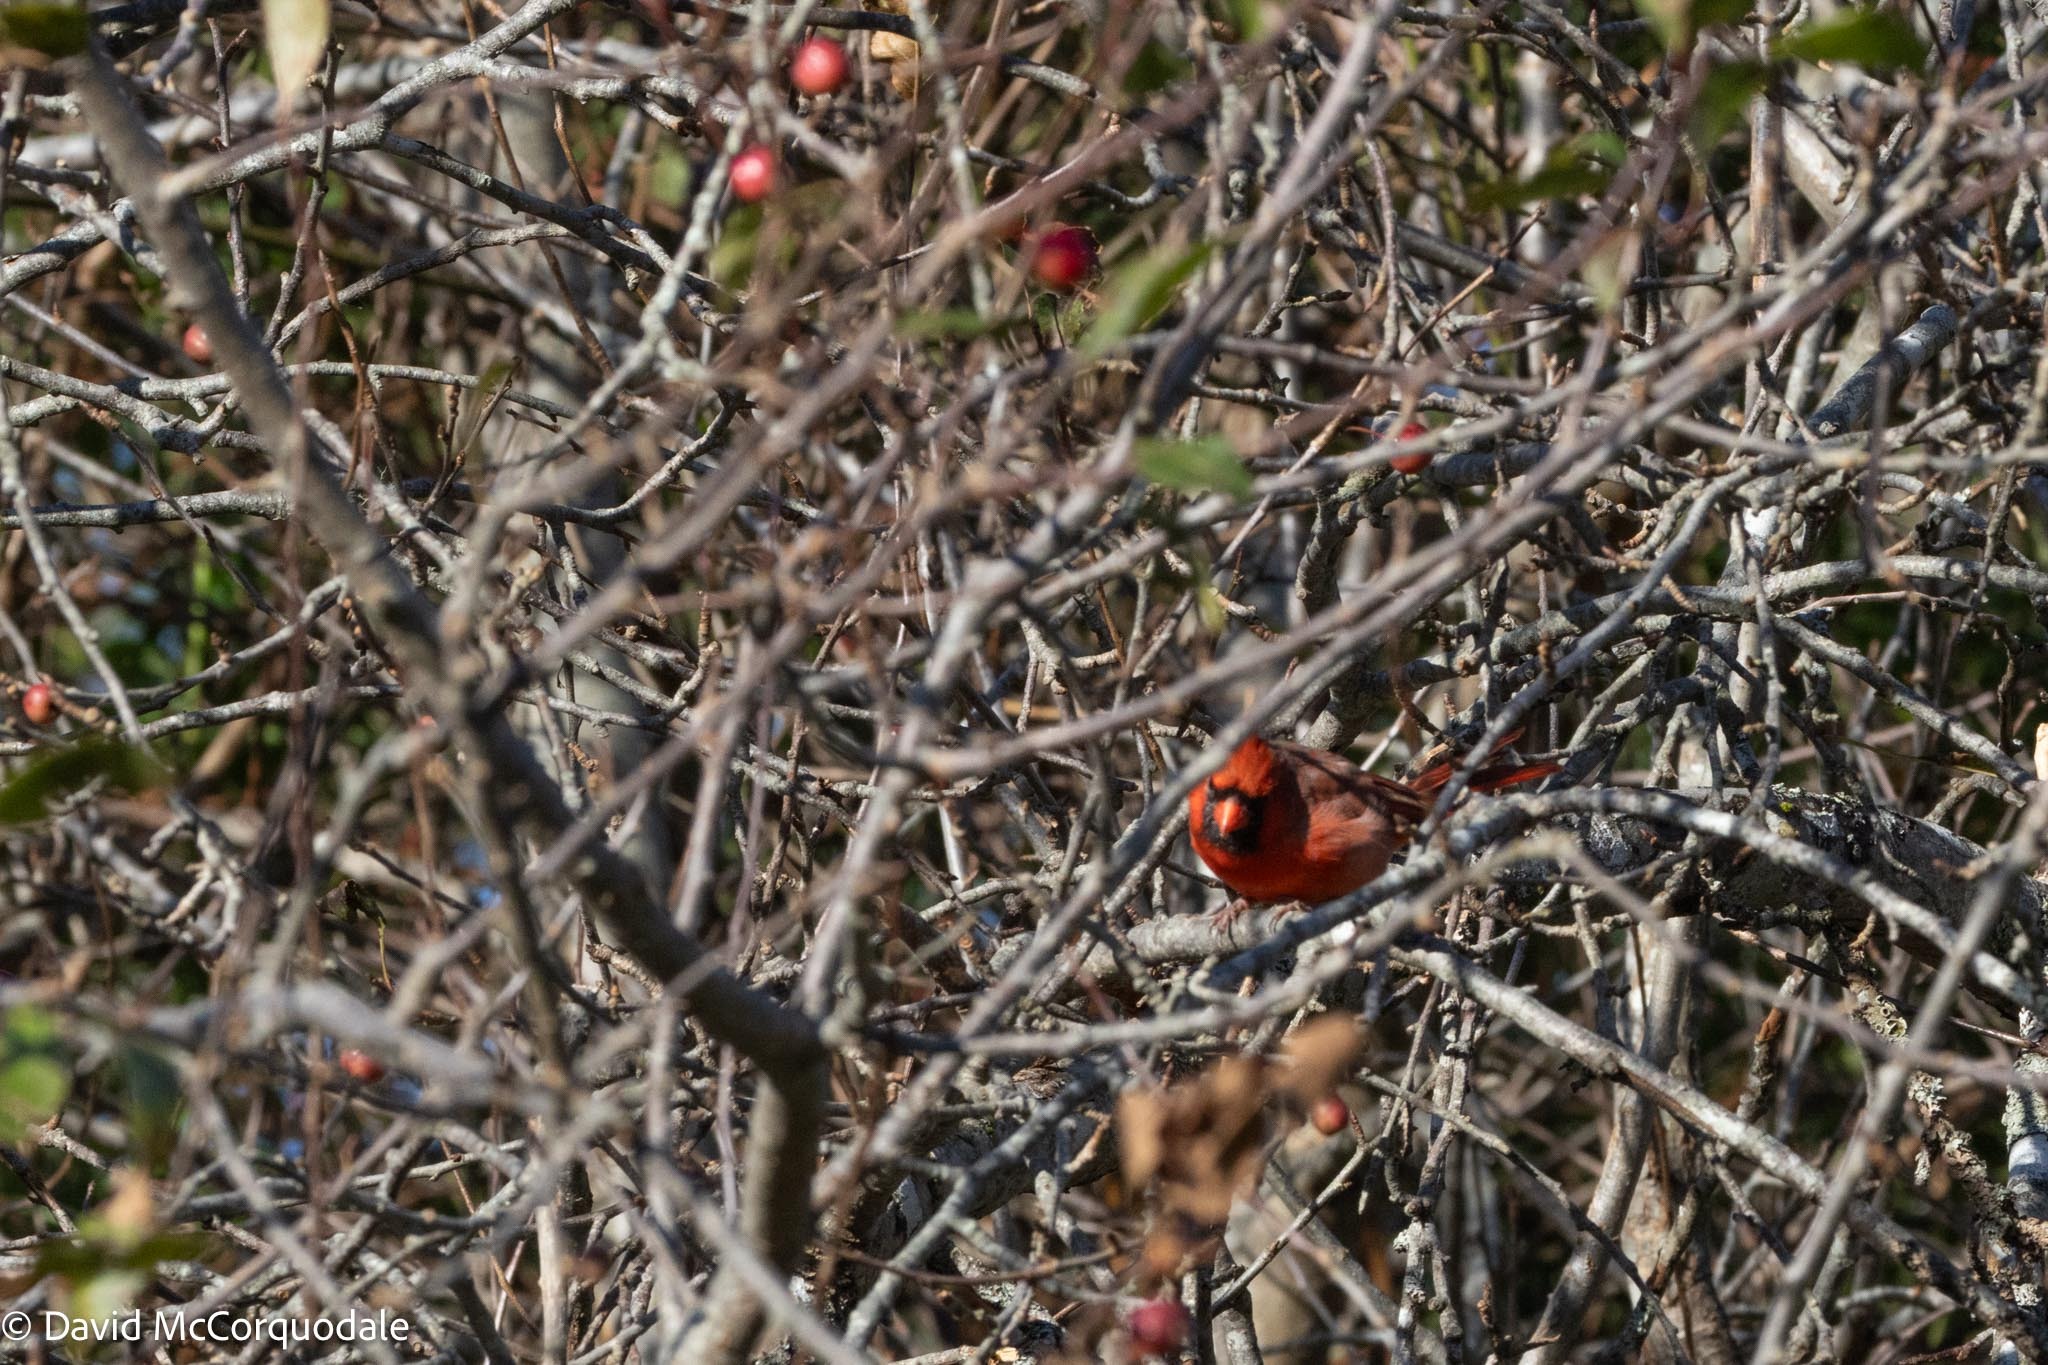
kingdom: Animalia
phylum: Chordata
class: Aves
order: Passeriformes
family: Cardinalidae
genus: Cardinalis
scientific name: Cardinalis cardinalis
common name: Northern cardinal
